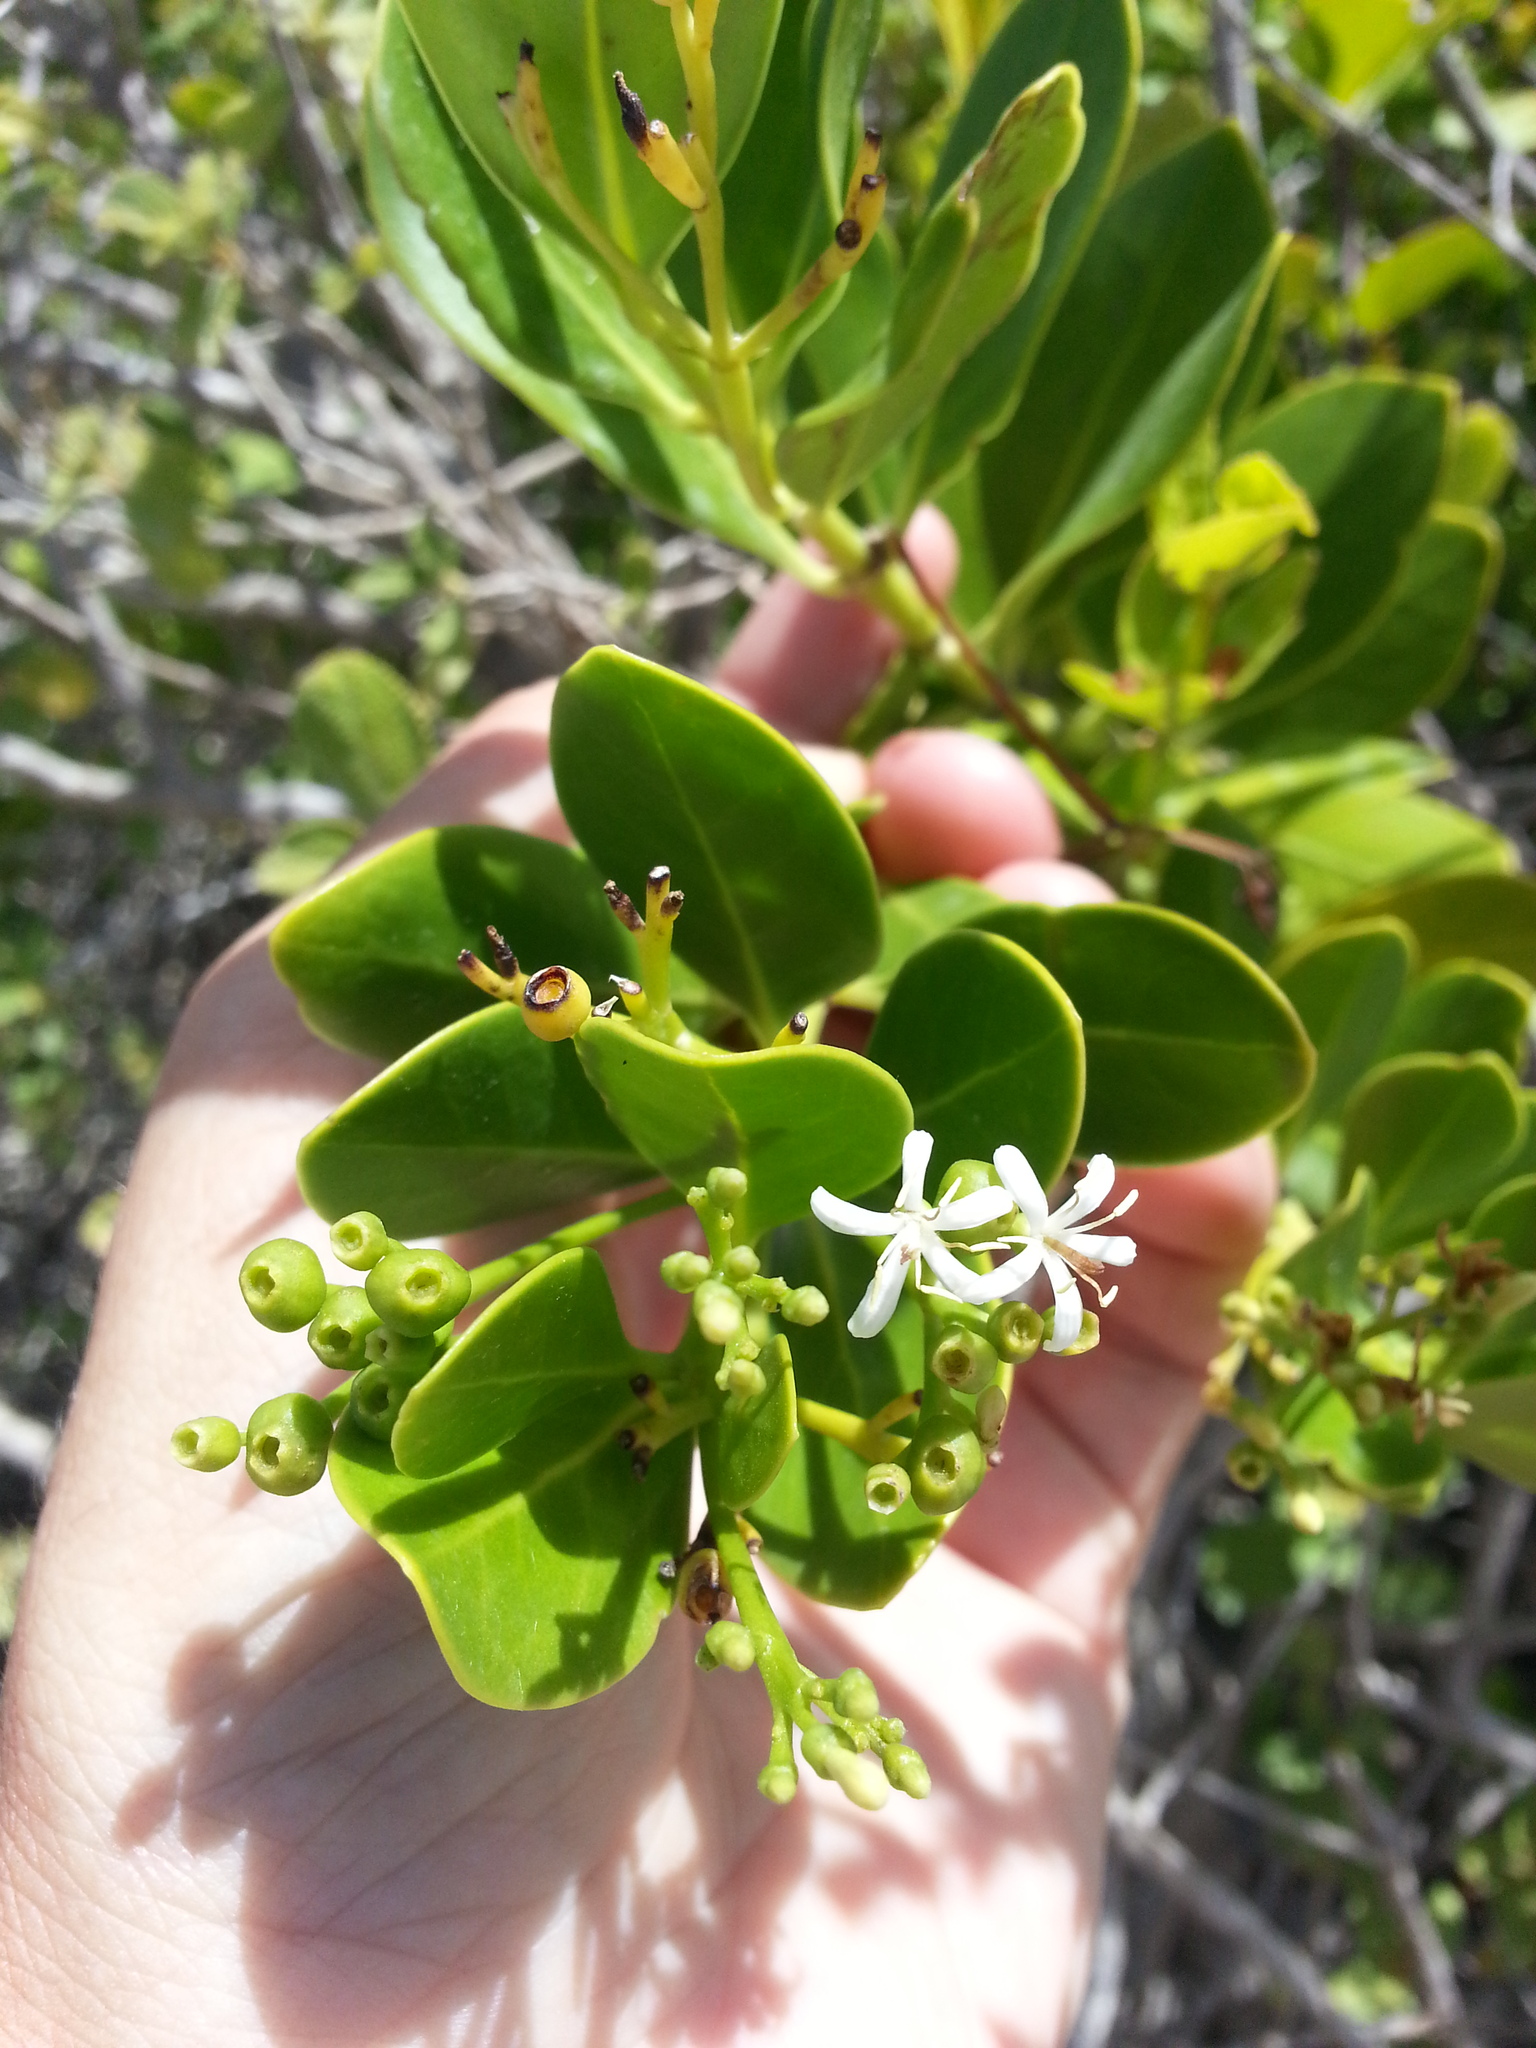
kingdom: Plantae
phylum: Tracheophyta
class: Magnoliopsida
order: Gentianales
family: Rubiaceae
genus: Erithalis
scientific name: Erithalis fruticosa
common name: Candlewood
